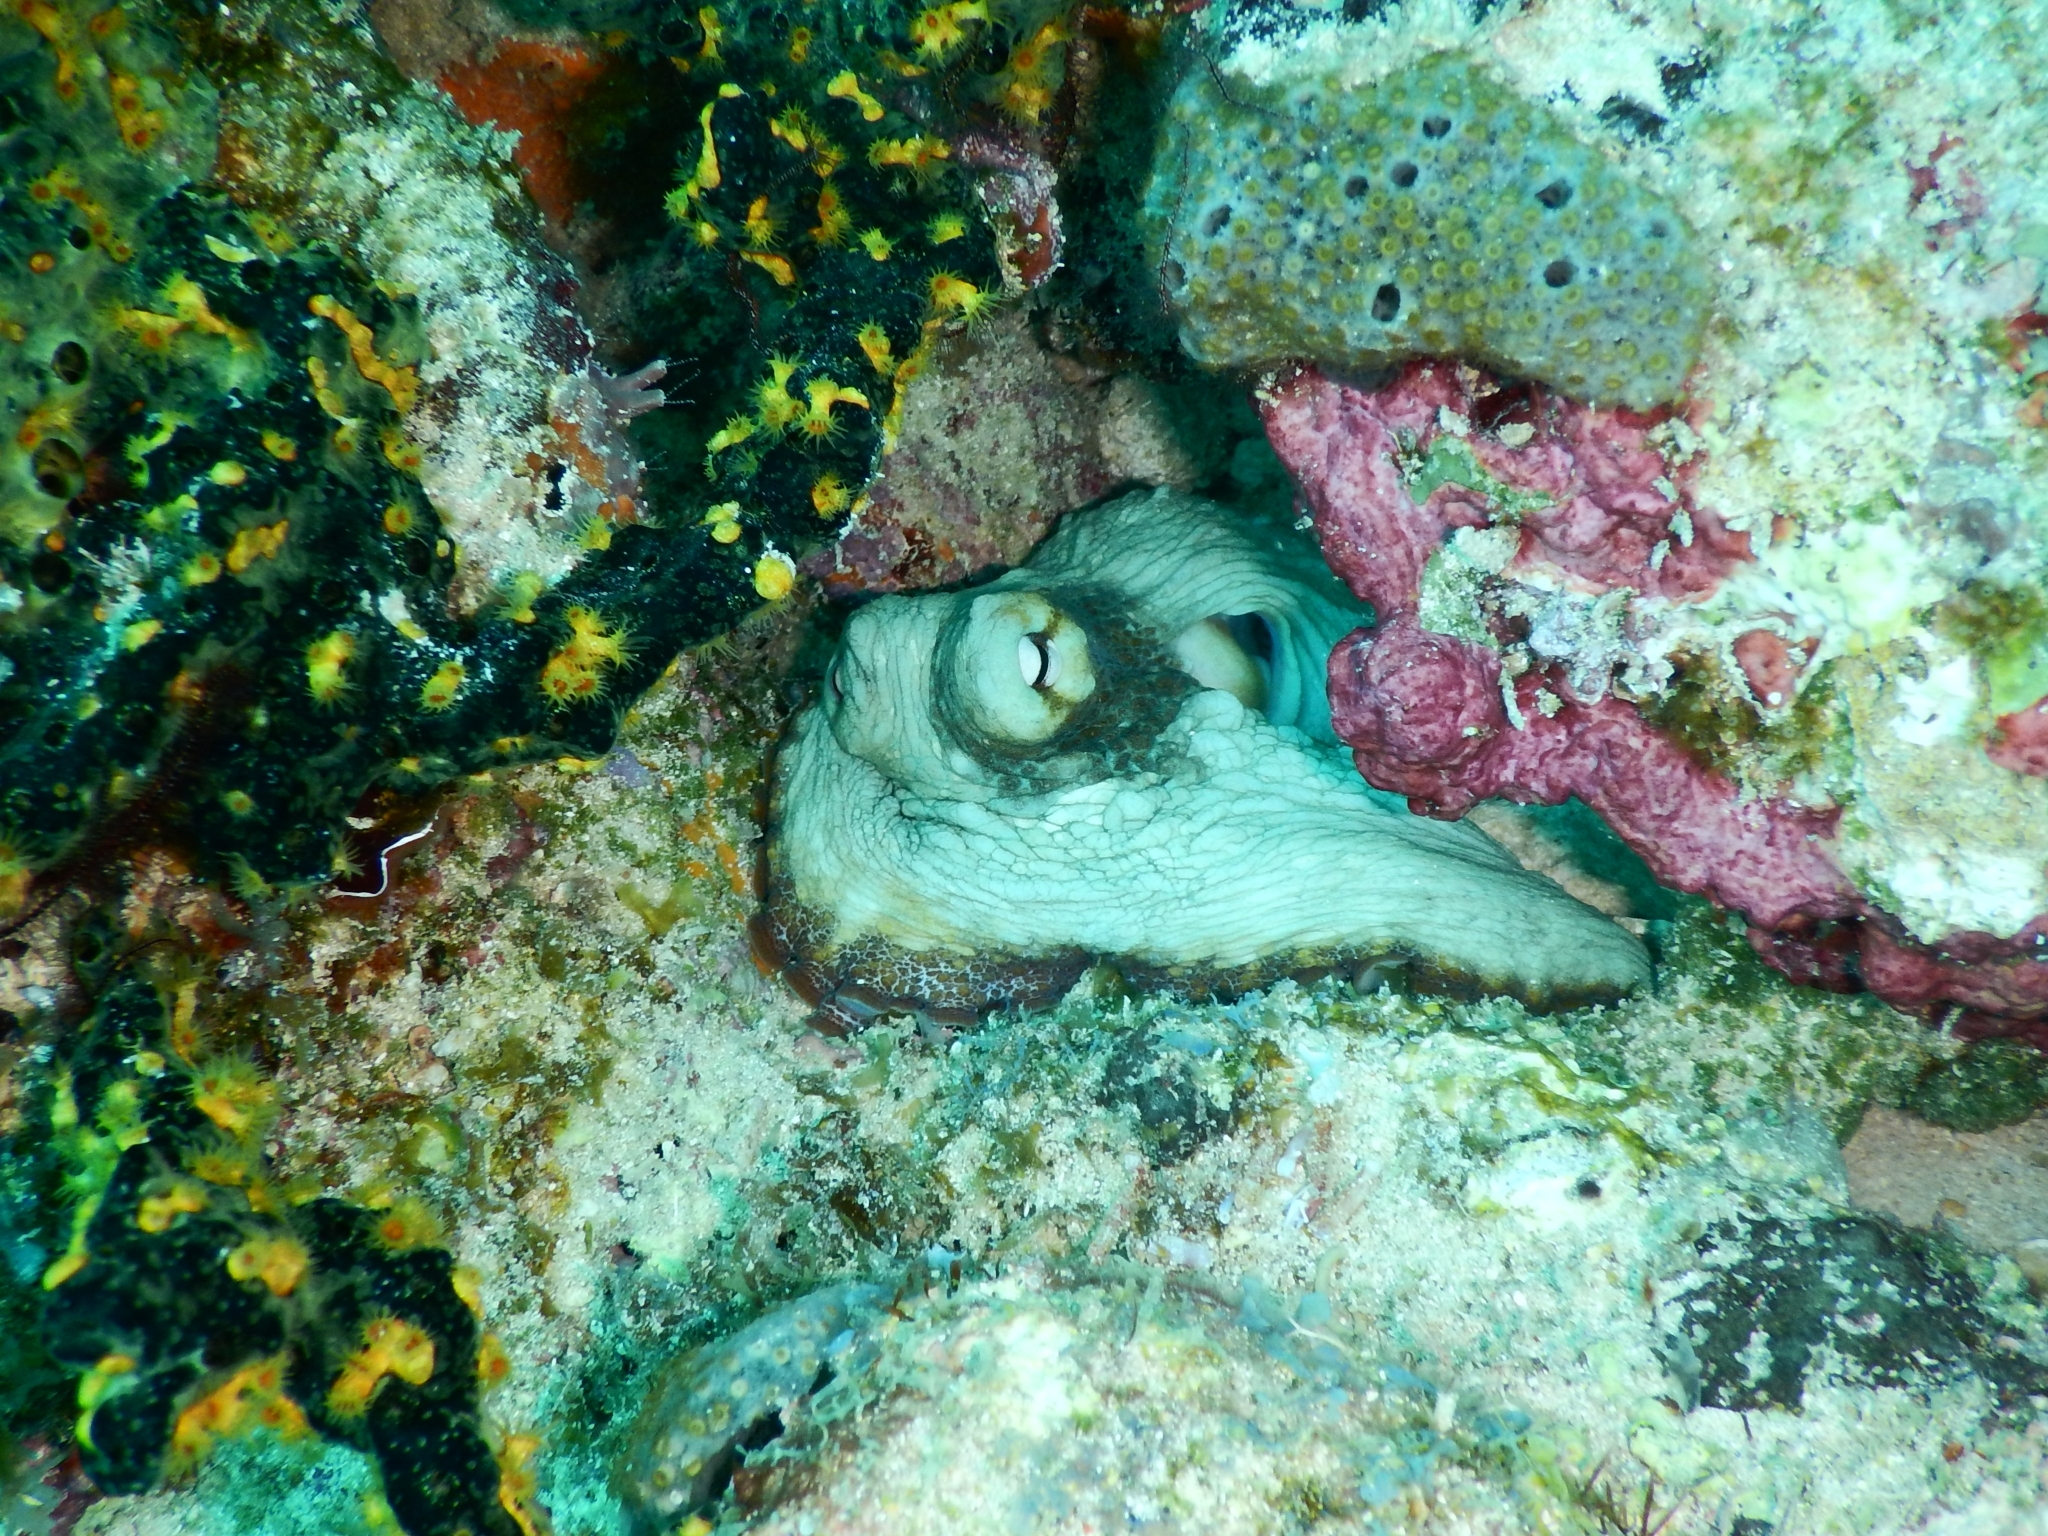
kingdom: Animalia
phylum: Mollusca
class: Cephalopoda
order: Octopoda
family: Octopodidae
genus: Octopus
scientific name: Octopus insularis
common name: Brazil reef octopus
